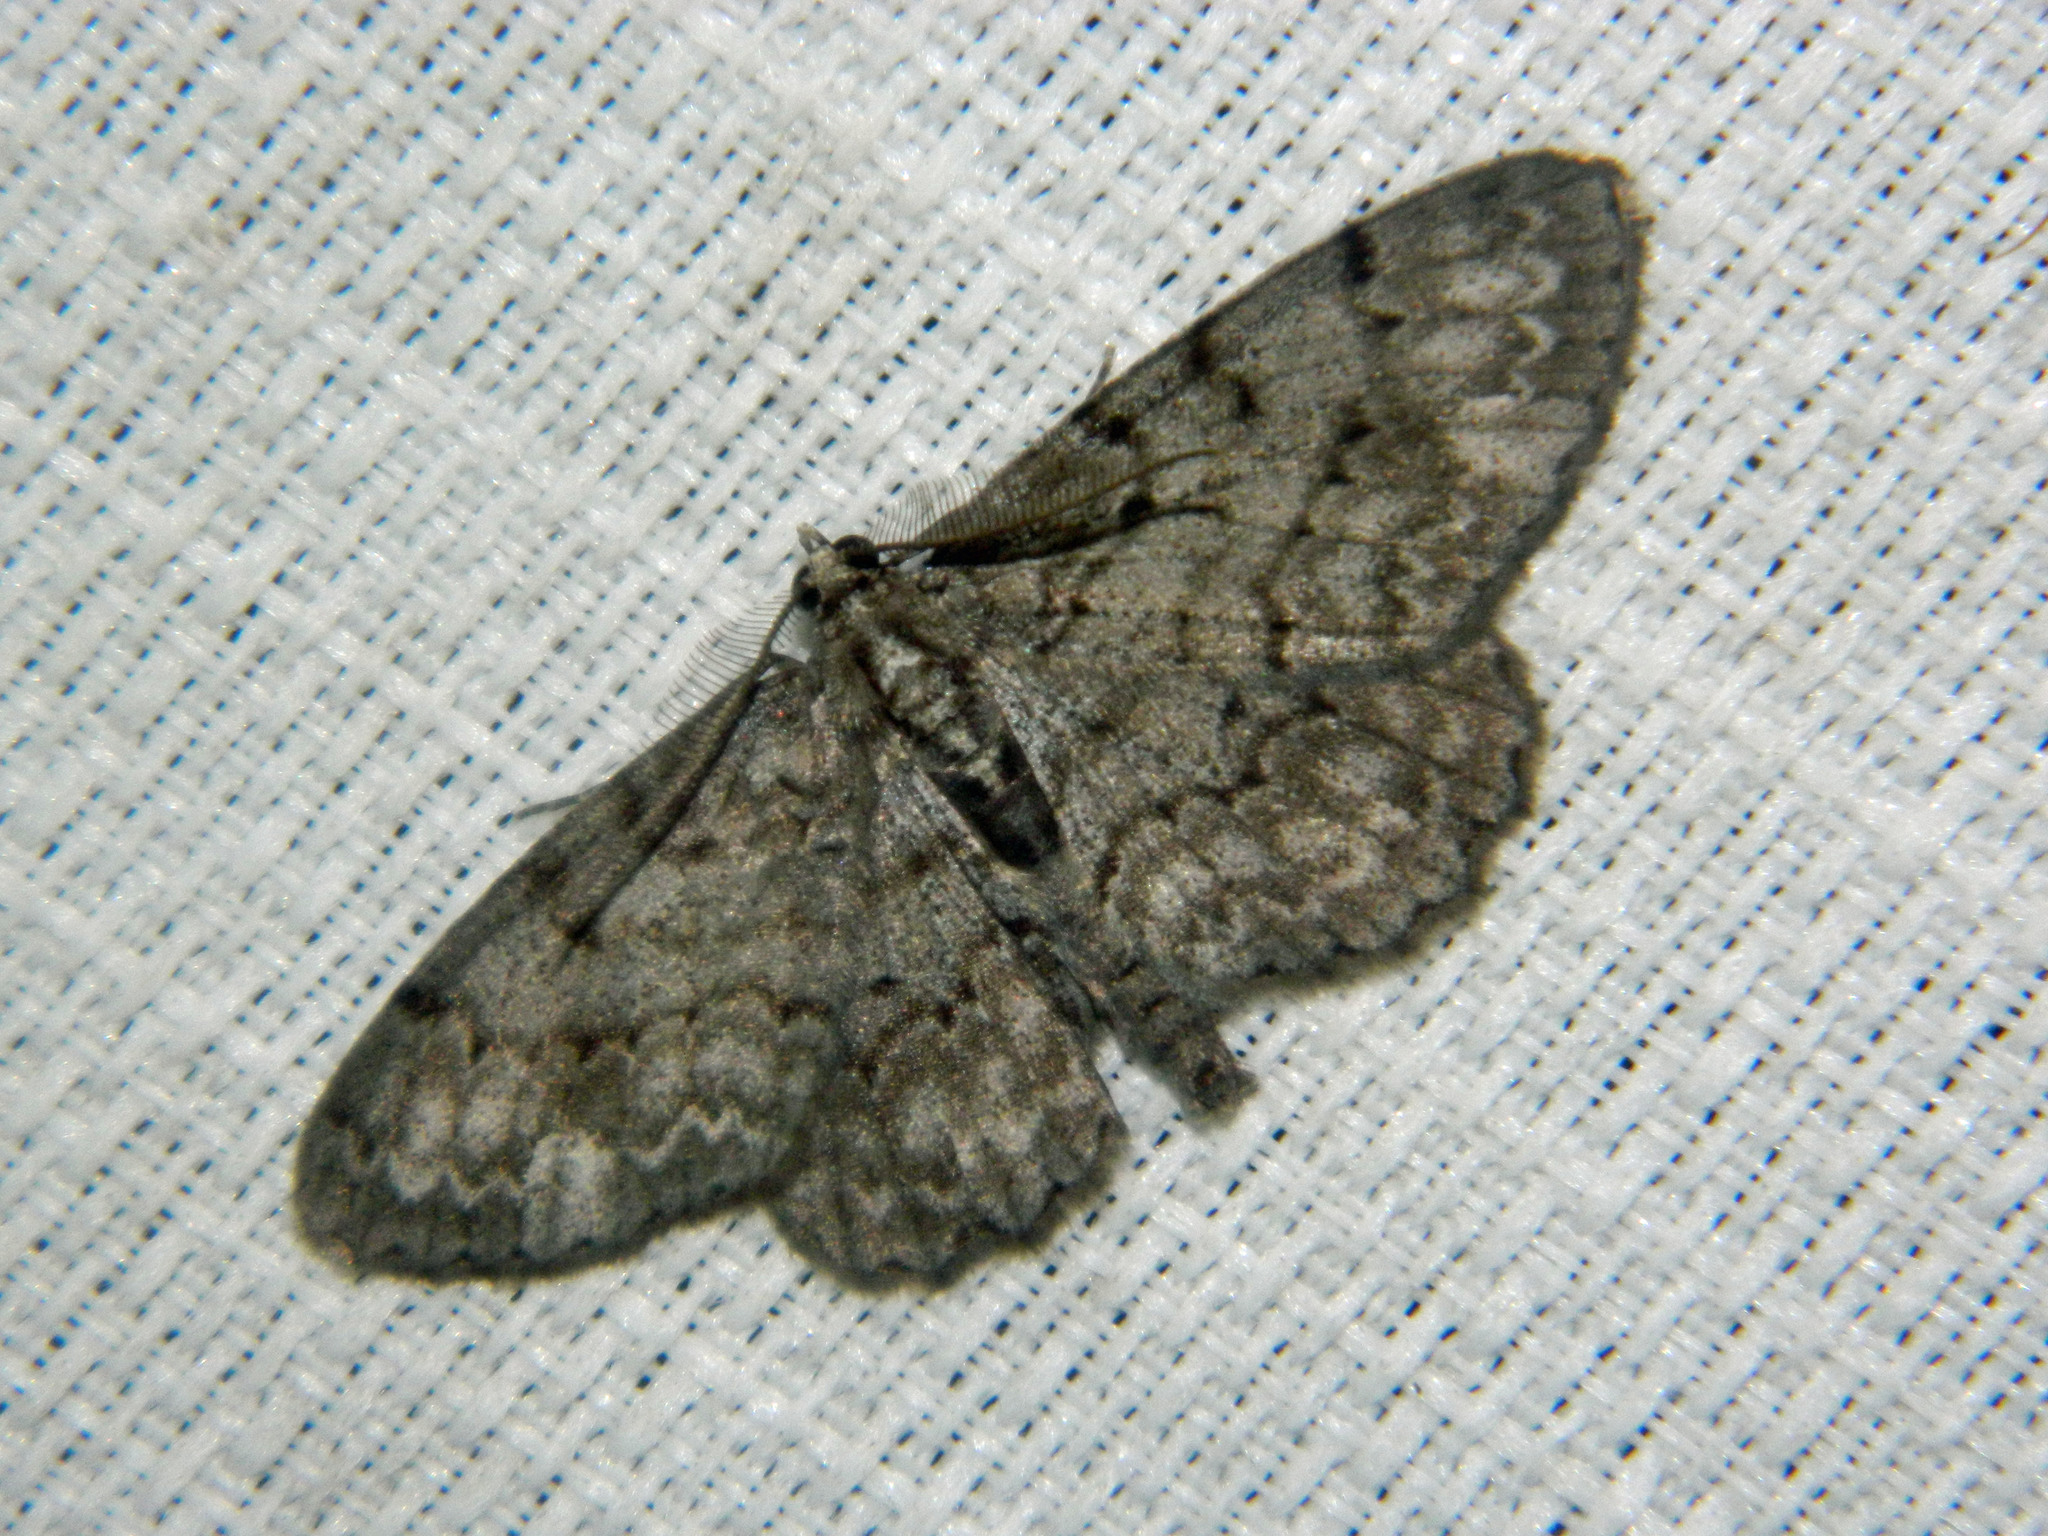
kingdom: Animalia
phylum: Arthropoda
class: Insecta
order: Lepidoptera
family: Geometridae
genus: Protoboarmia
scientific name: Protoboarmia porcelaria
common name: Porcelain gray
